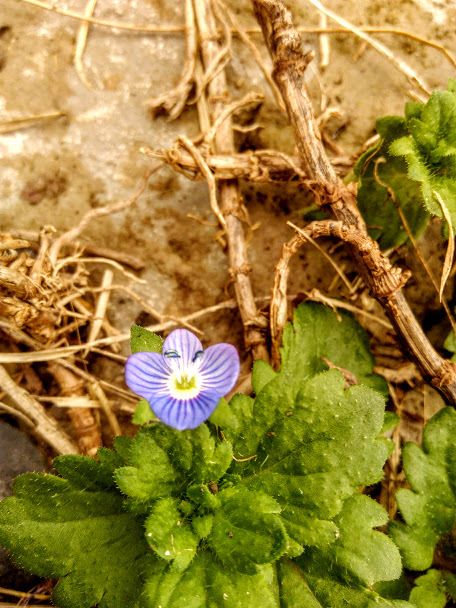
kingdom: Plantae
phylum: Tracheophyta
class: Magnoliopsida
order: Lamiales
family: Plantaginaceae
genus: Veronica
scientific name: Veronica persica
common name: Common field-speedwell
